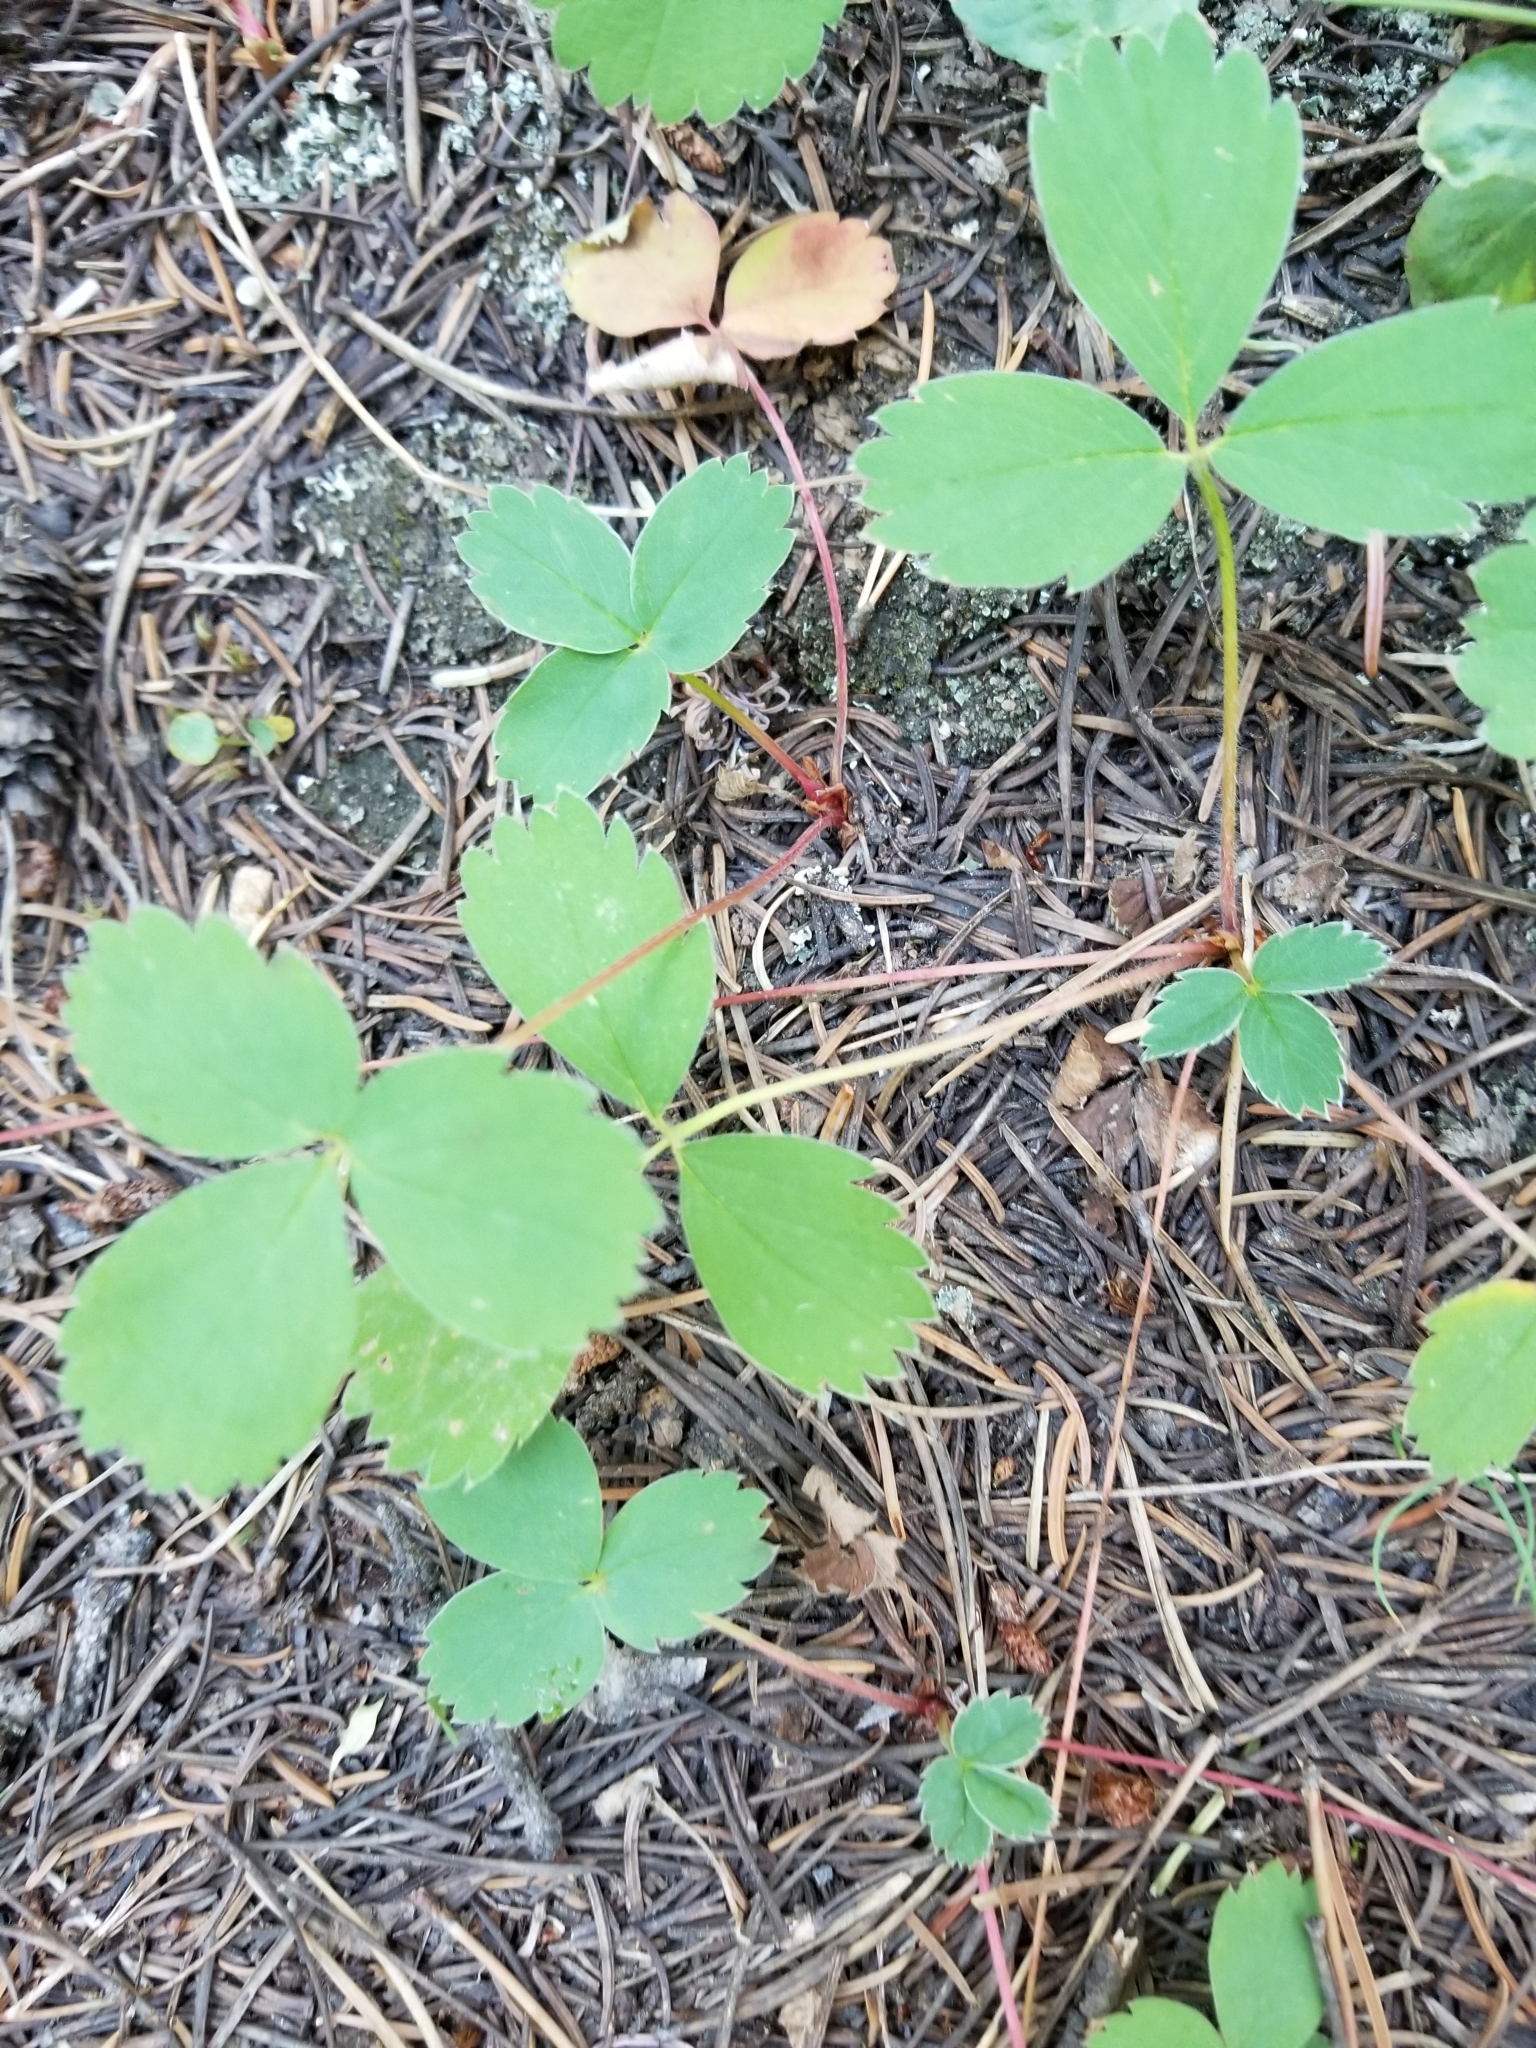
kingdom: Plantae
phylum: Tracheophyta
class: Magnoliopsida
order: Rosales
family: Rosaceae
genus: Fragaria
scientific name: Fragaria virginiana
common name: Thickleaved wild strawberry
